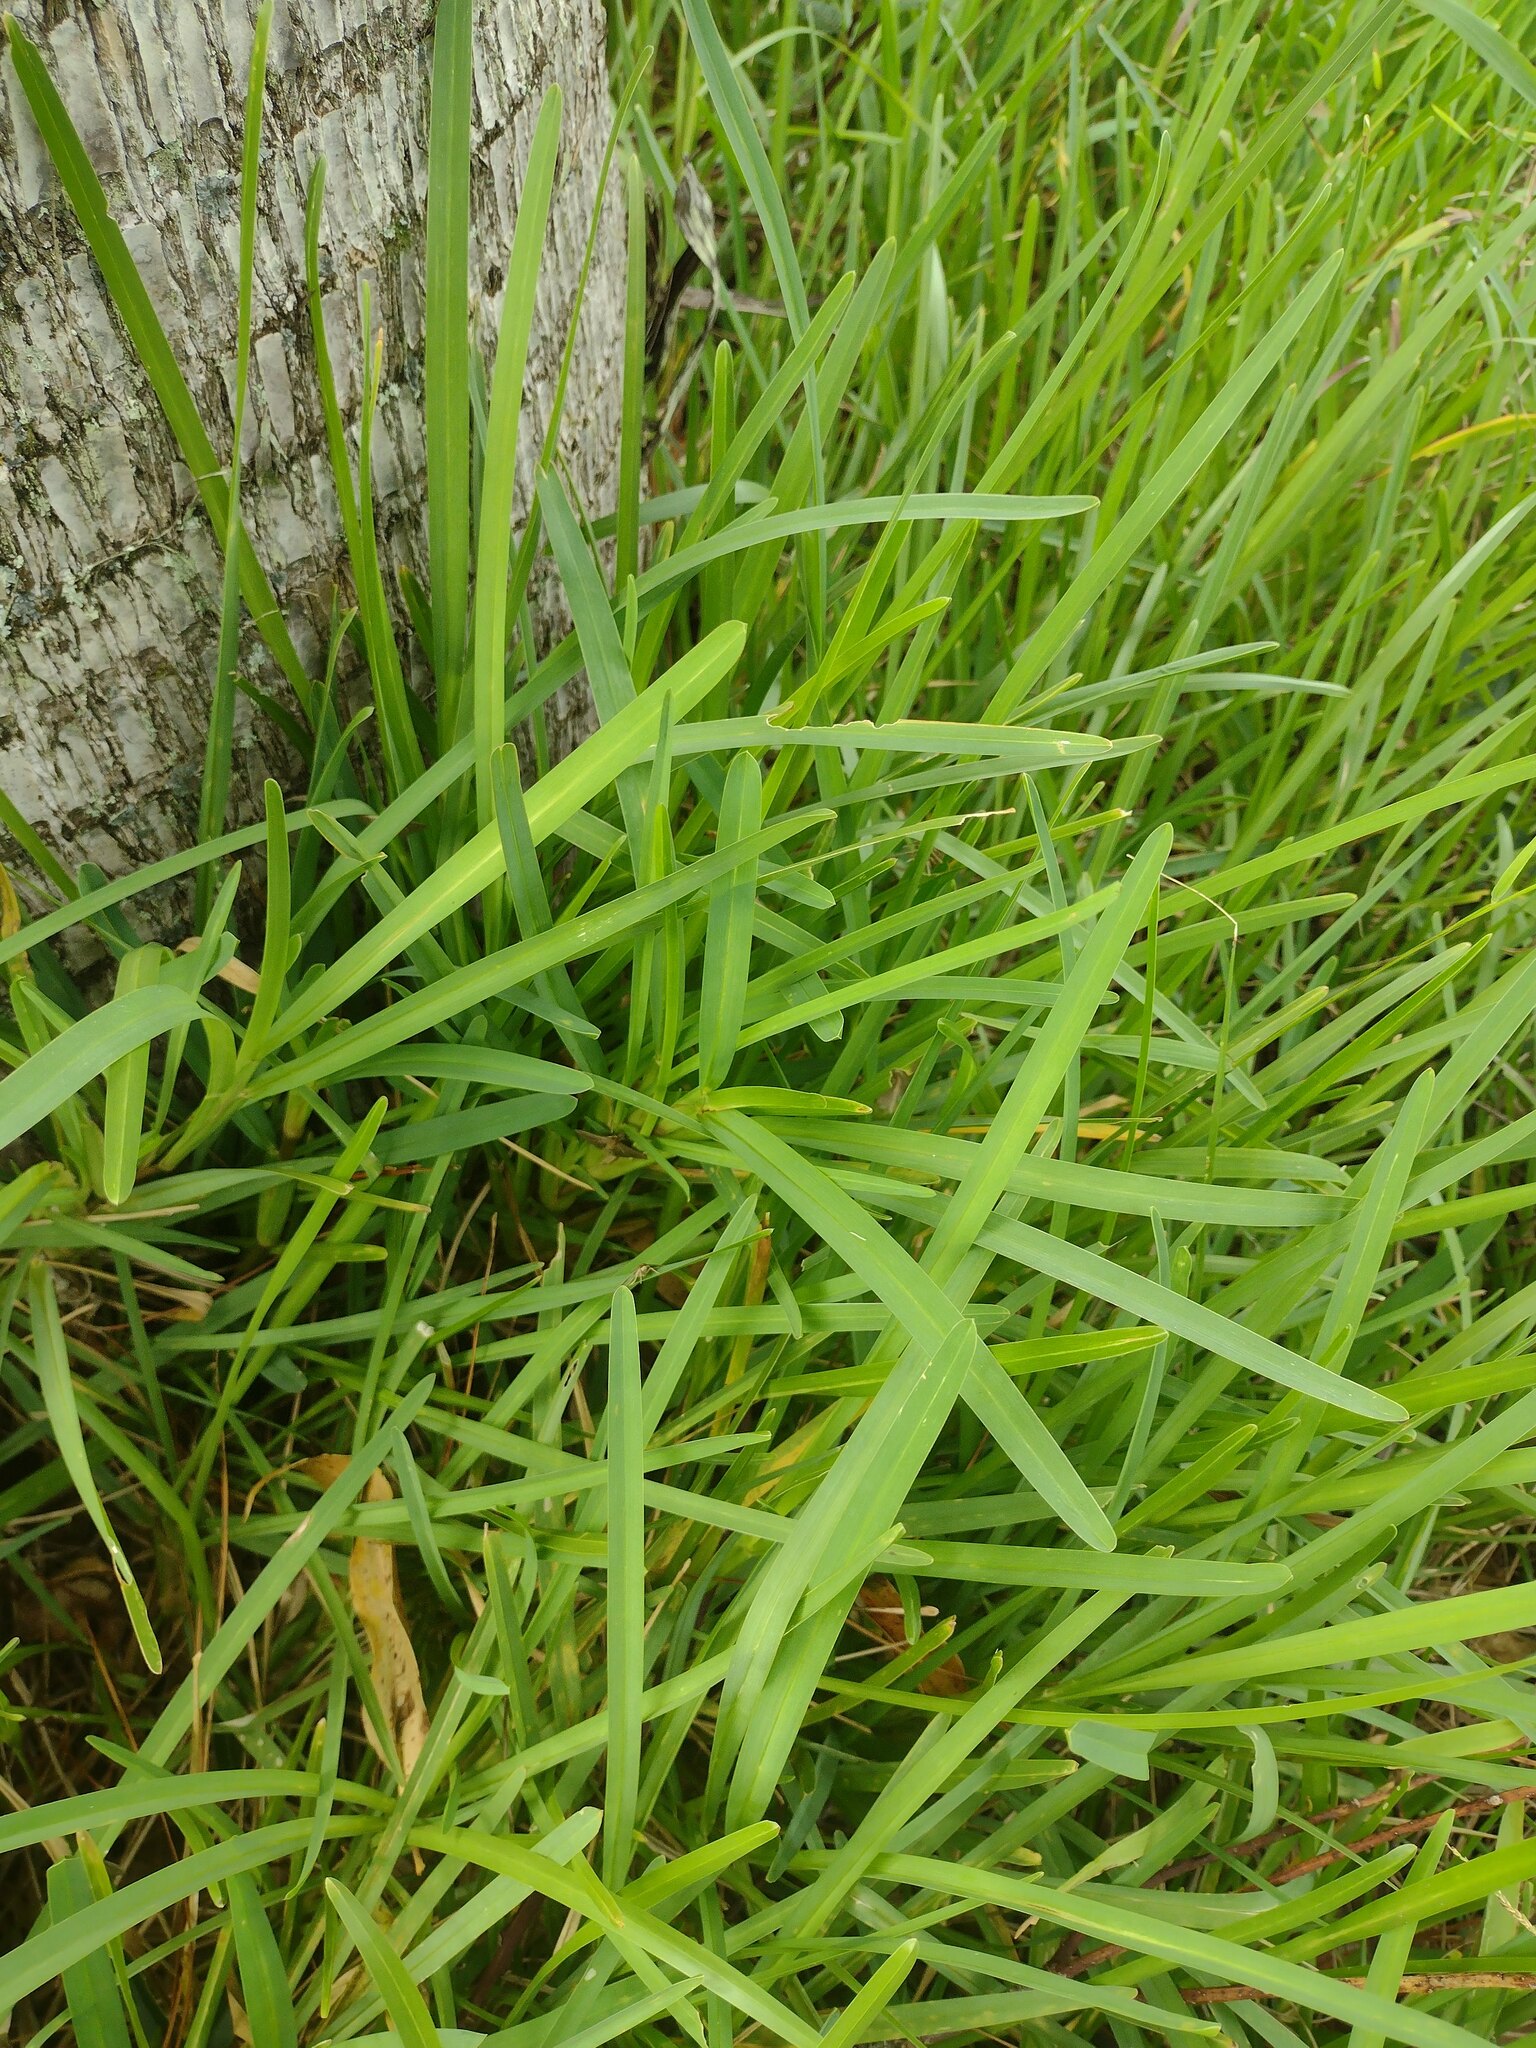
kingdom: Plantae
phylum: Tracheophyta
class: Liliopsida
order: Poales
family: Poaceae
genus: Stenotaphrum
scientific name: Stenotaphrum secundatum
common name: St. augustine grass
